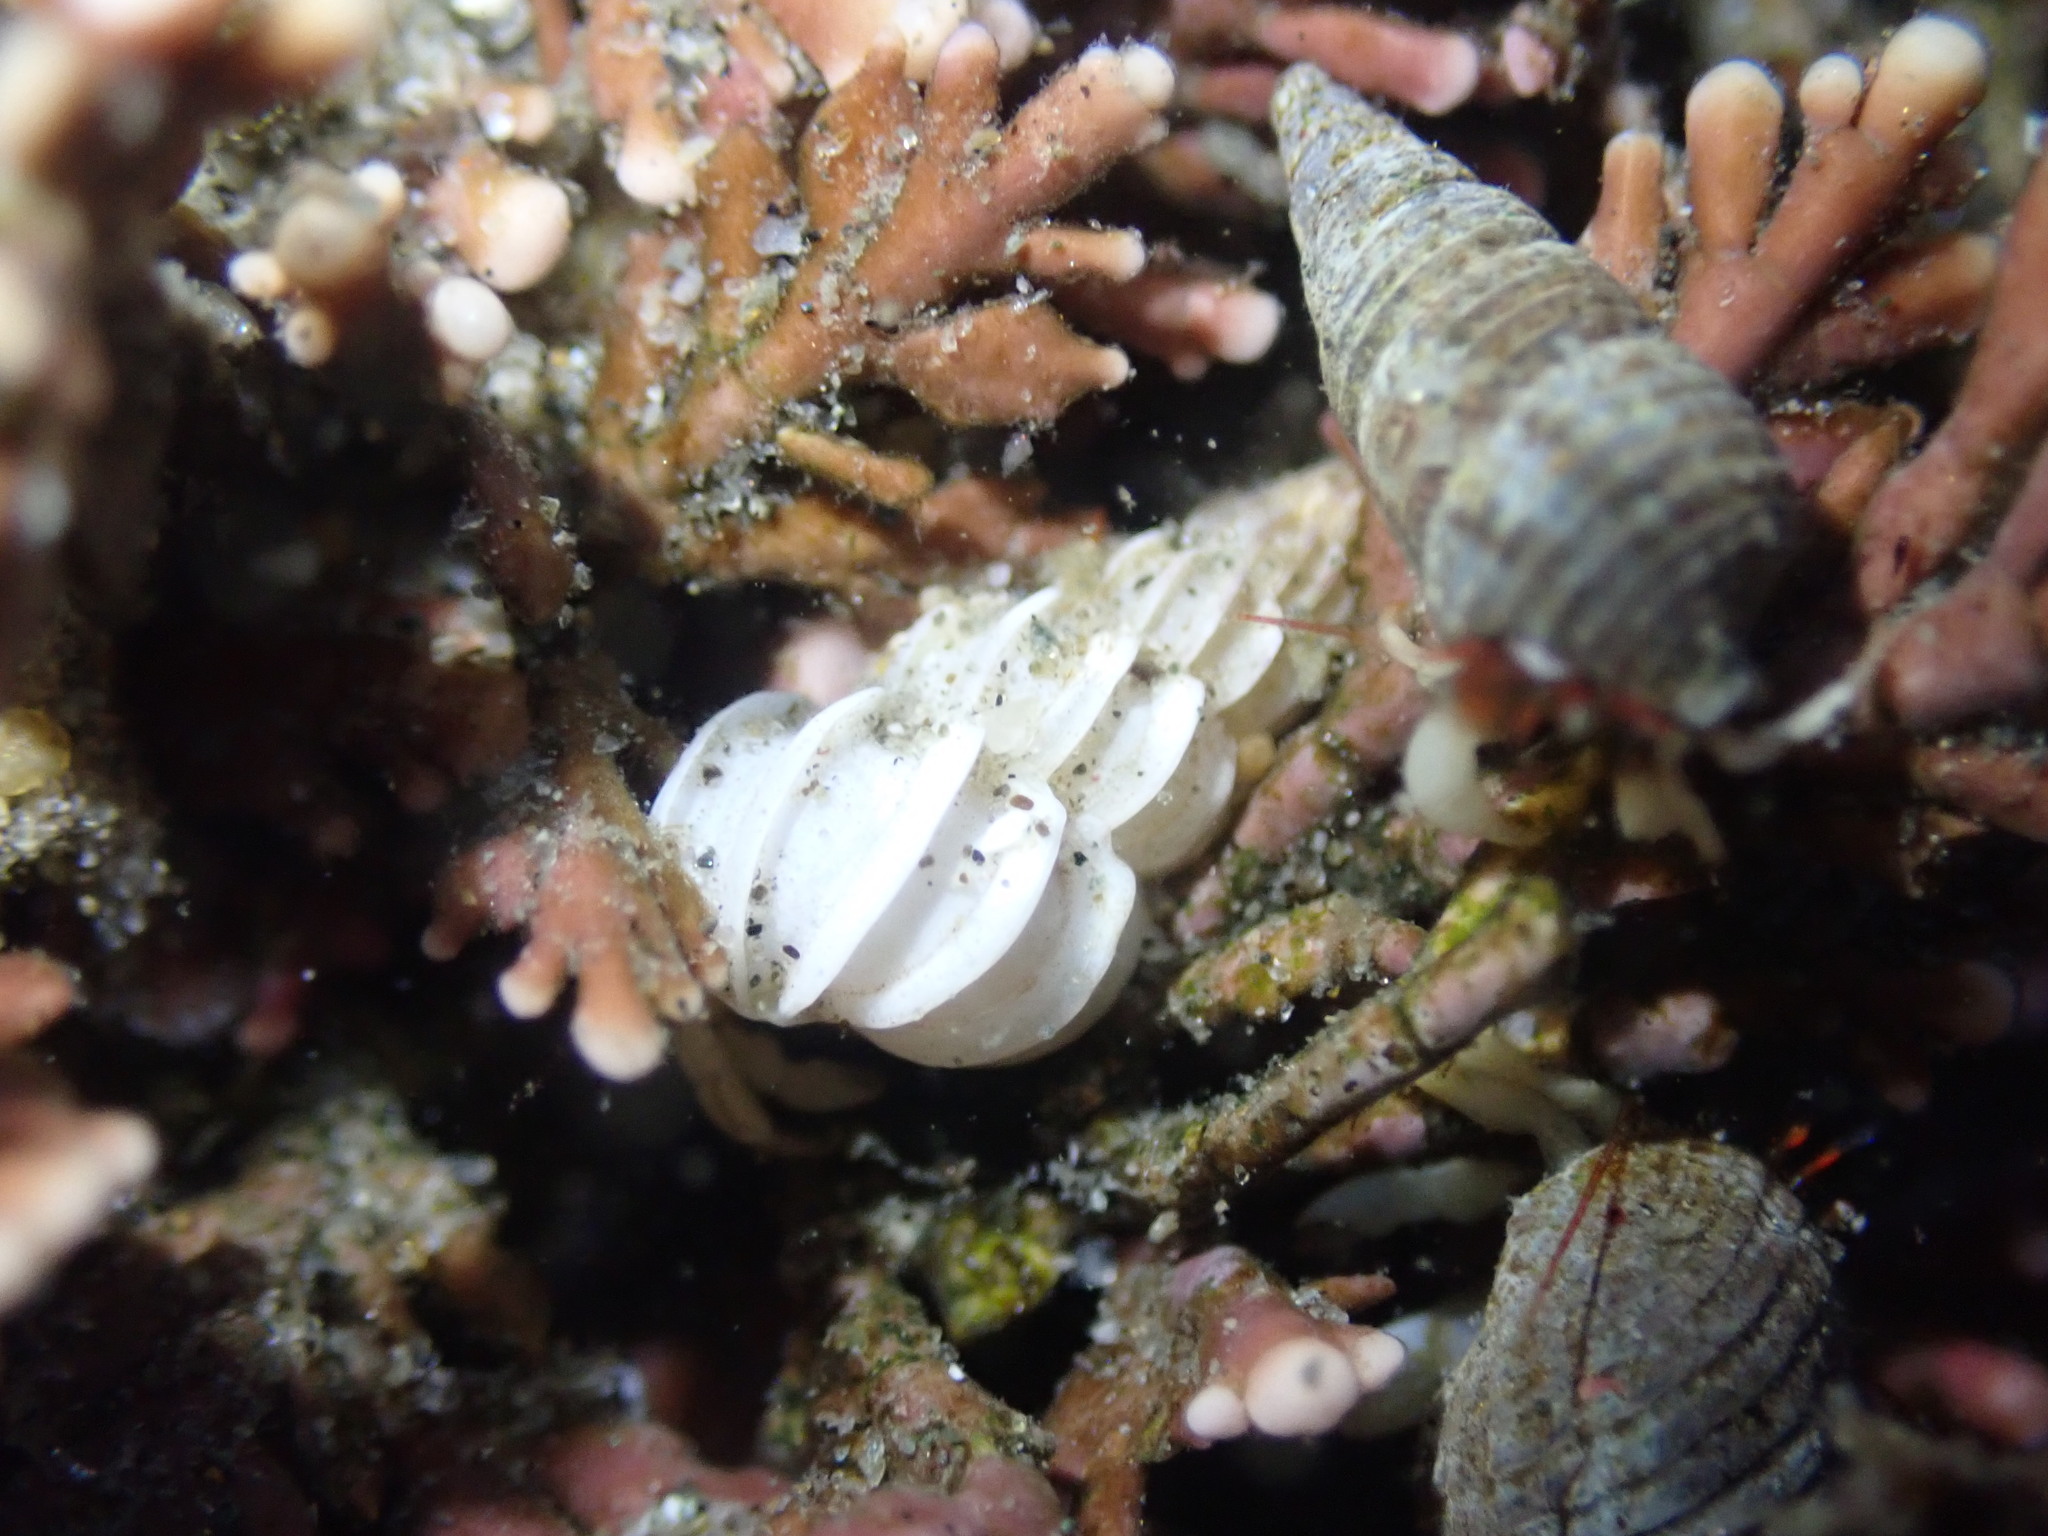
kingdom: Animalia
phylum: Mollusca
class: Gastropoda
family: Epitoniidae
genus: Epitonium
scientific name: Epitonium californicum
